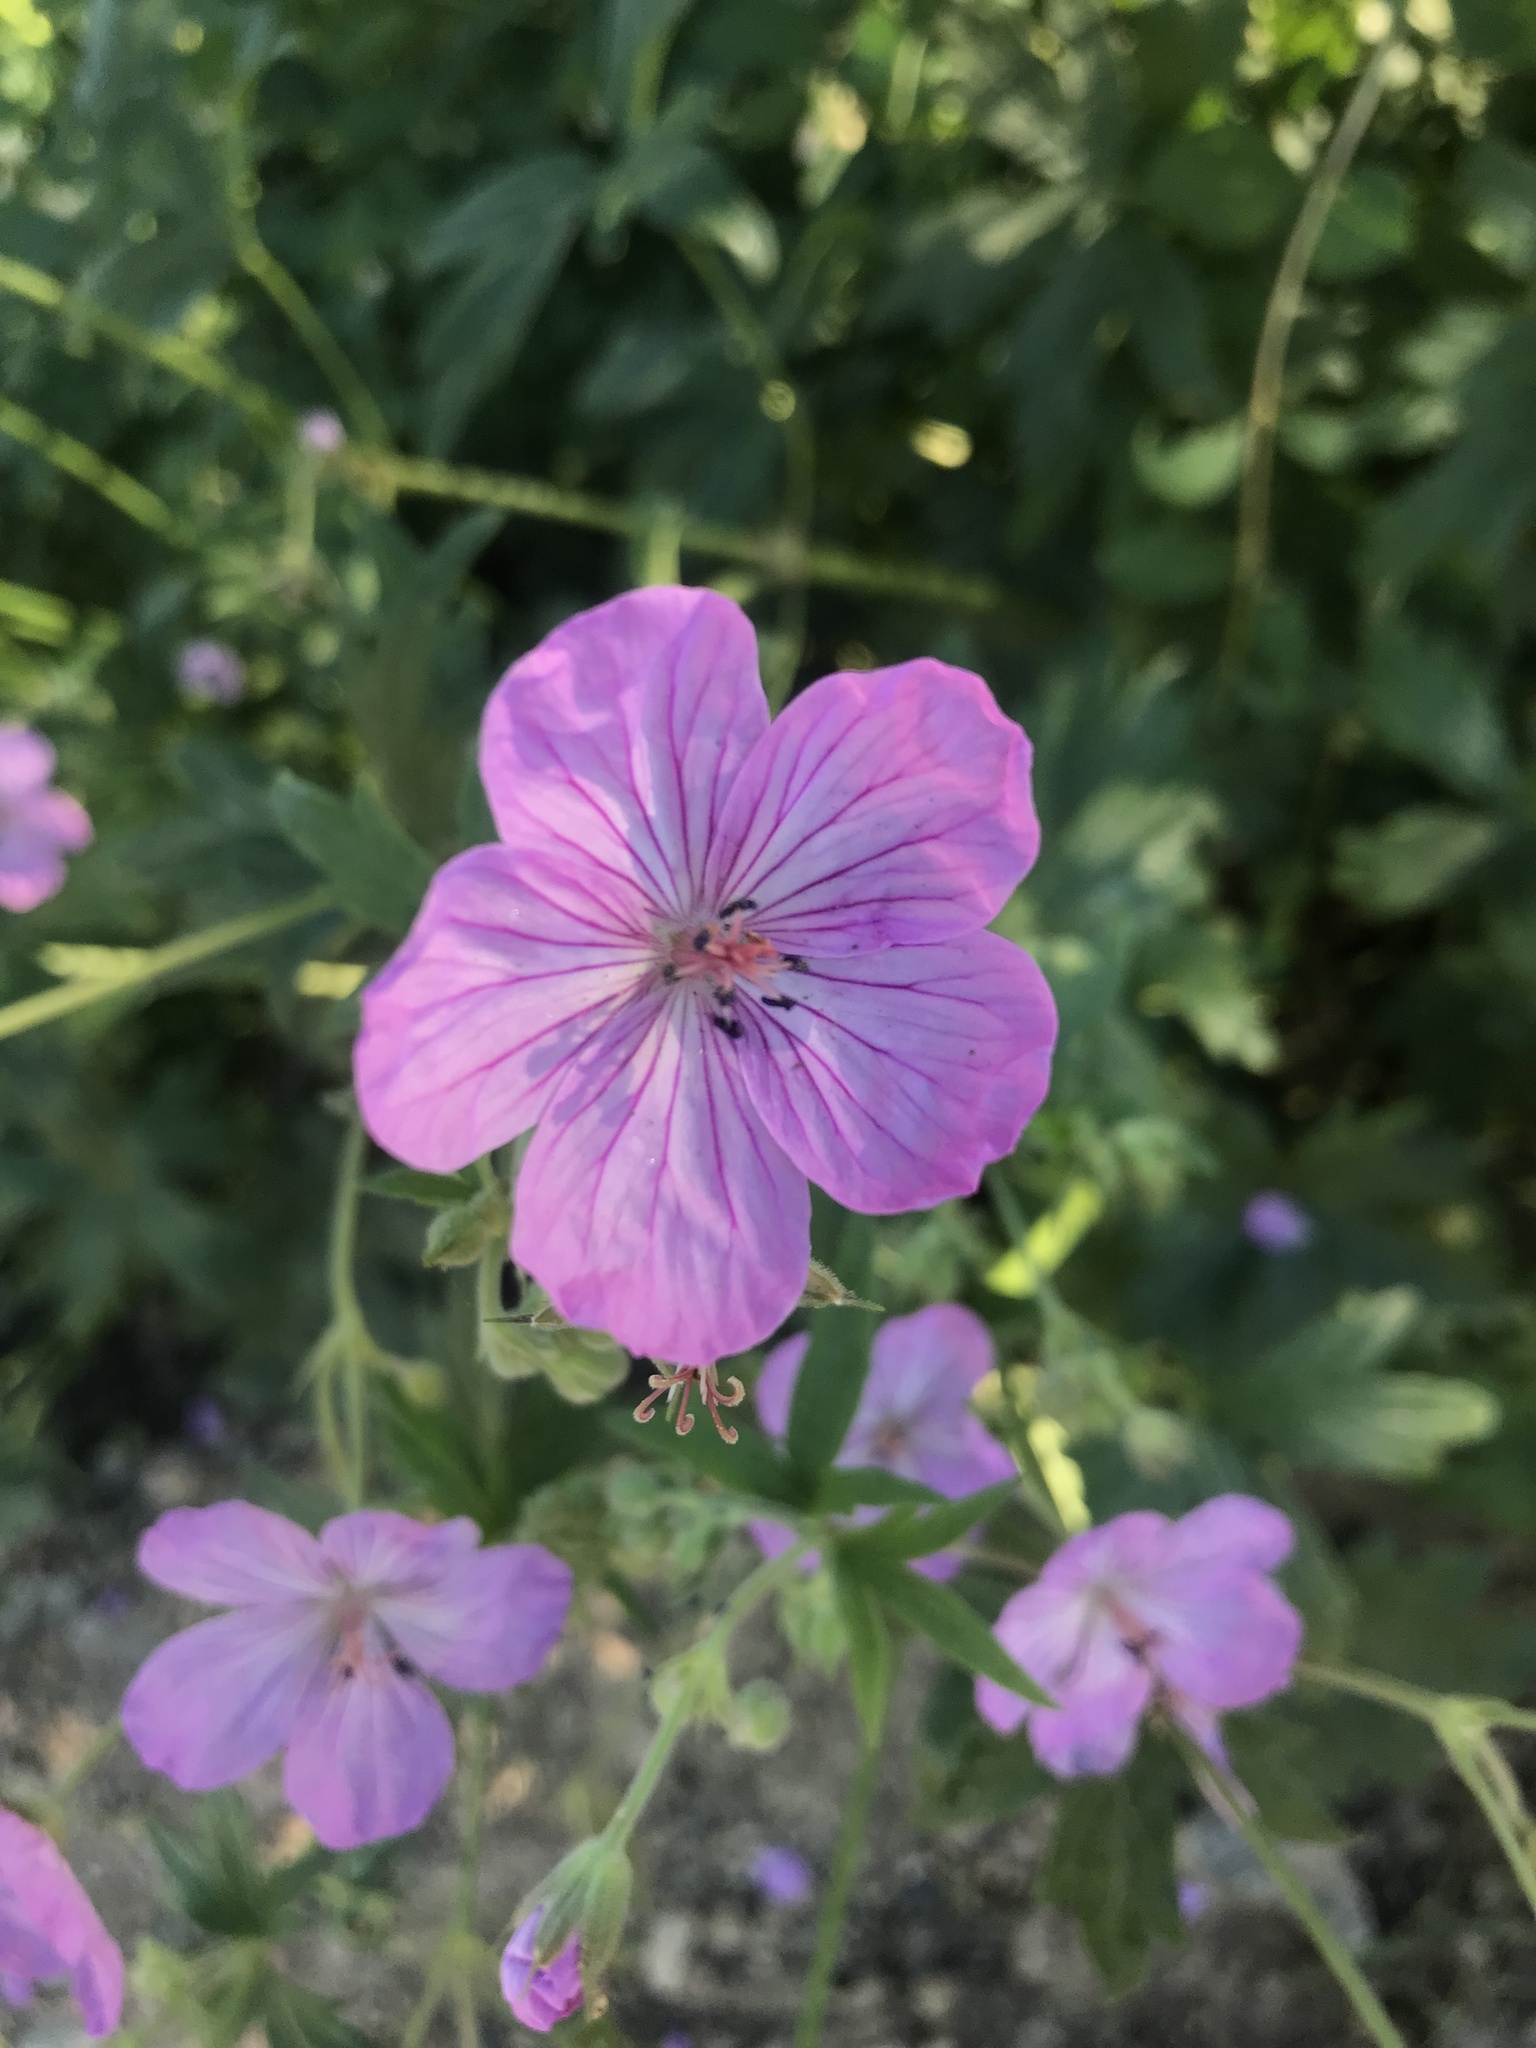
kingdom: Plantae
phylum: Tracheophyta
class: Magnoliopsida
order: Geraniales
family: Geraniaceae
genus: Geranium
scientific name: Geranium viscosissimum
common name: Purple geranium
